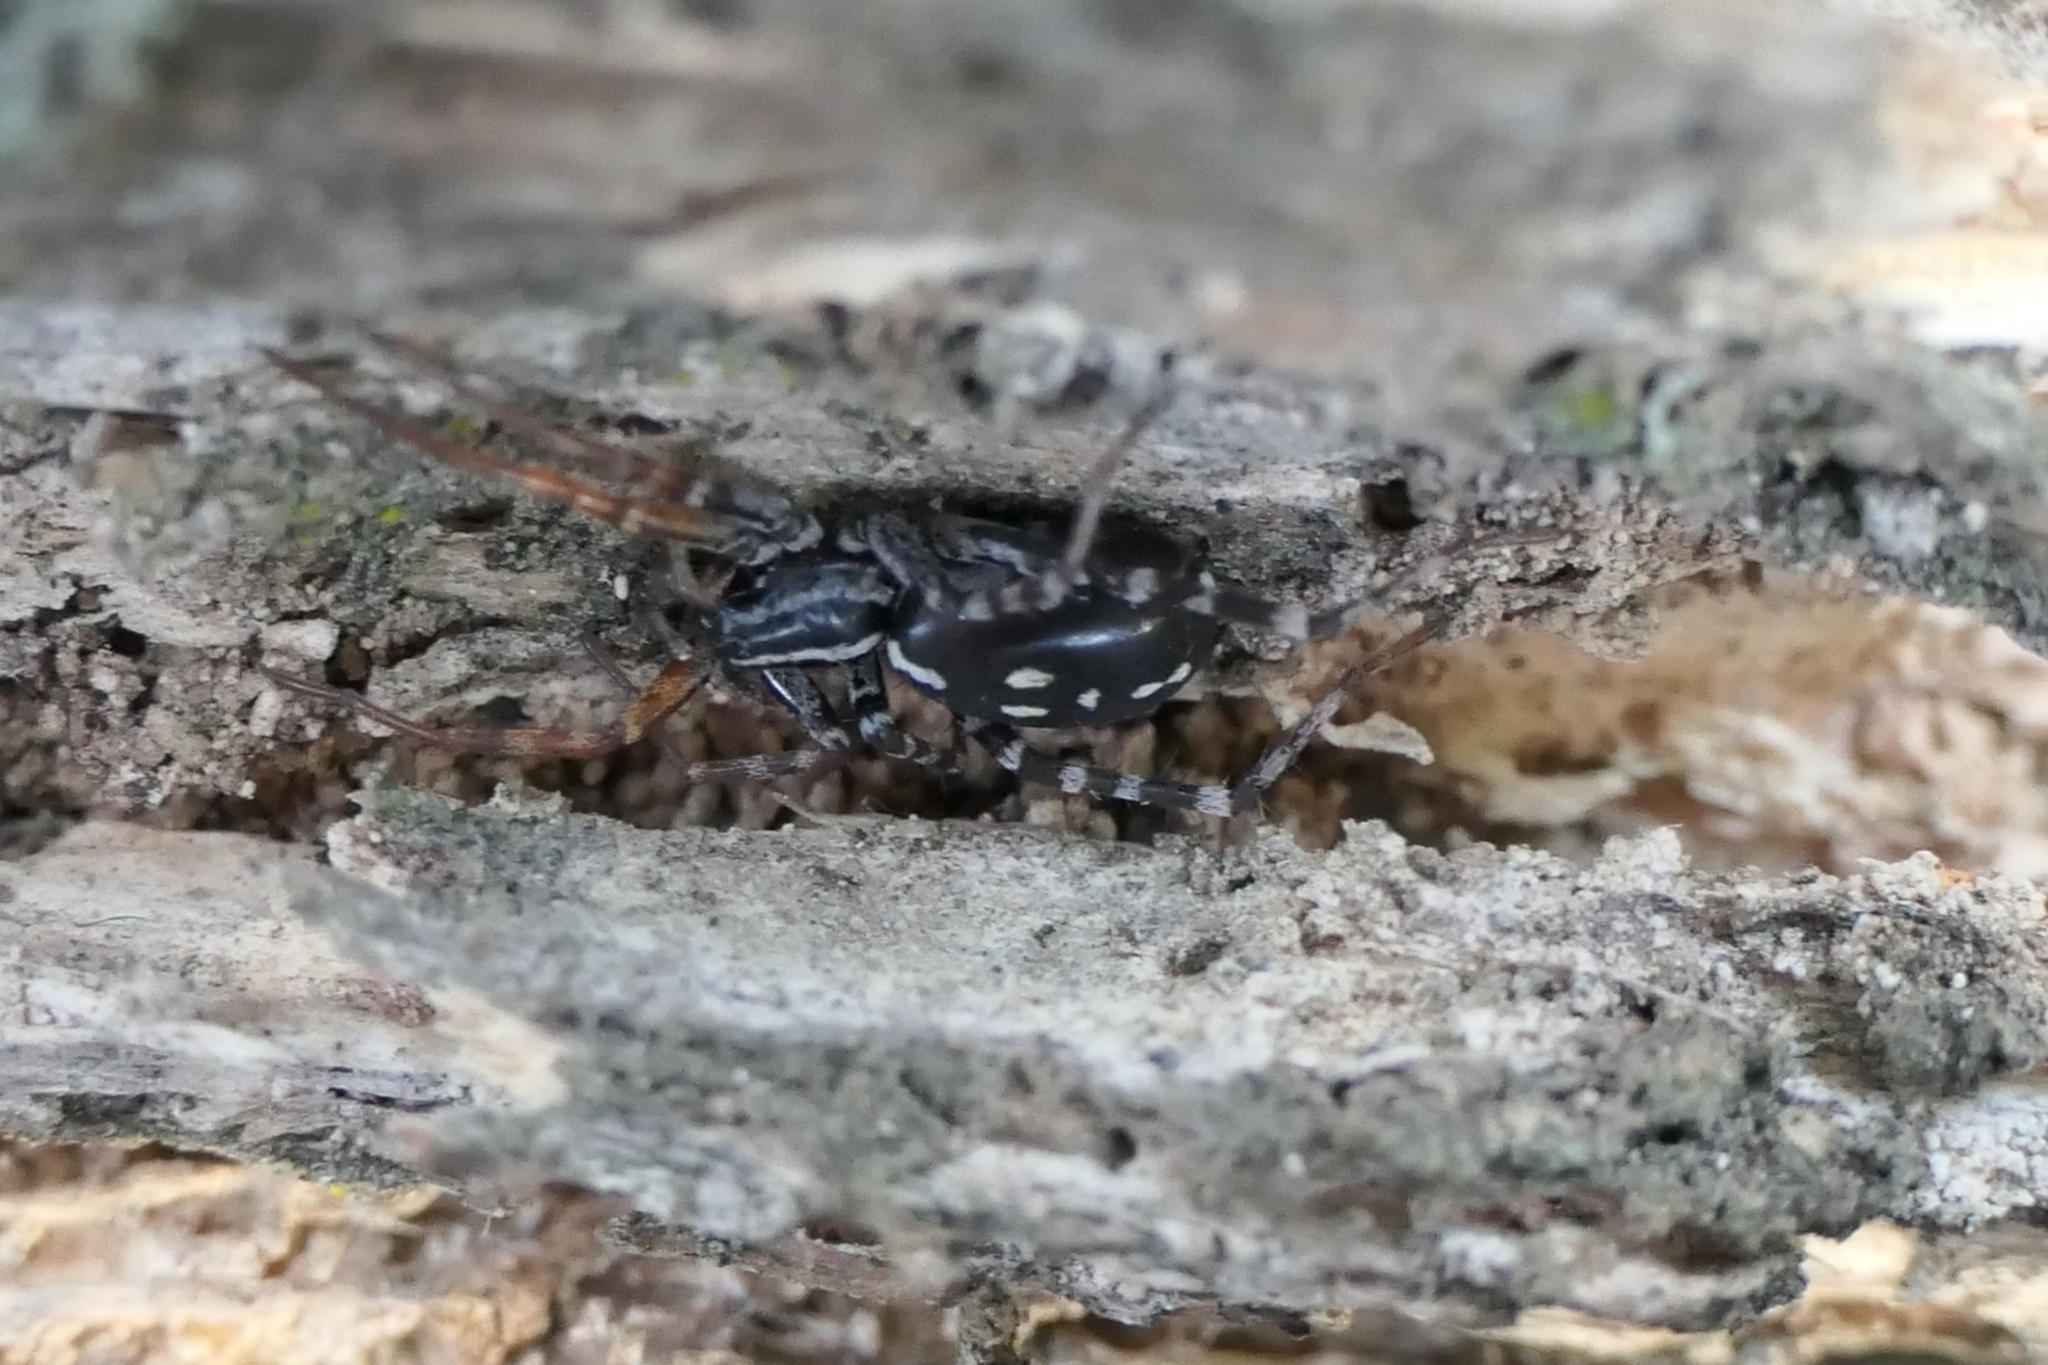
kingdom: Animalia
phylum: Arthropoda
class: Arachnida
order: Araneae
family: Corinnidae
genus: Nyssus
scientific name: Nyssus coloripes
